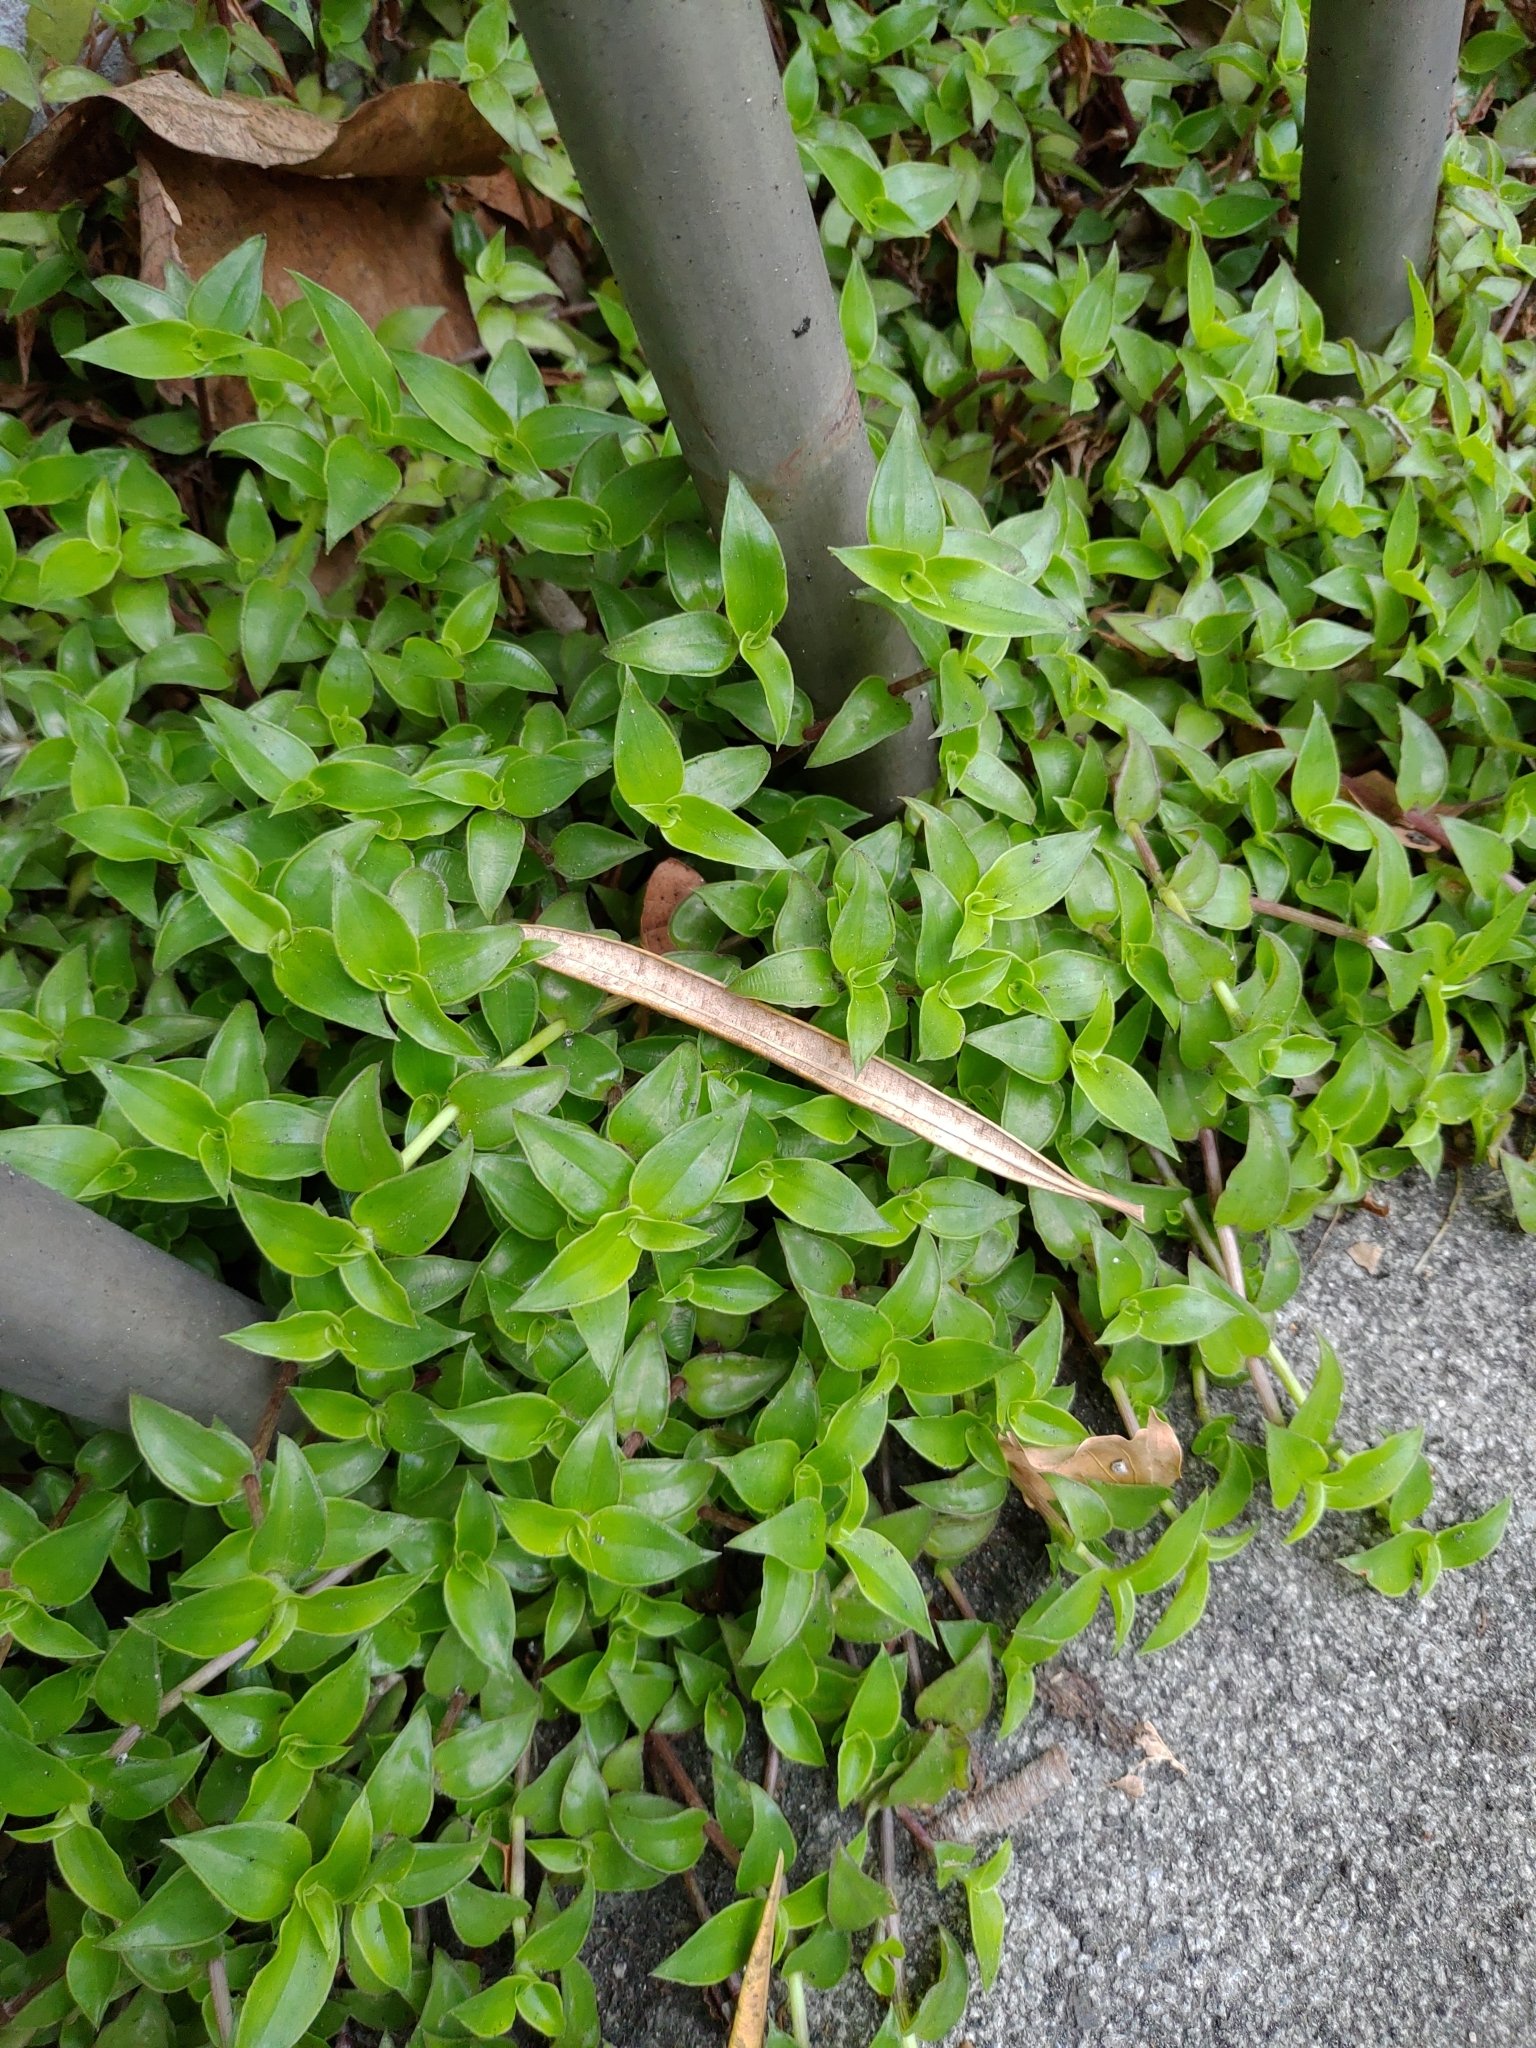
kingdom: Plantae
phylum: Tracheophyta
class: Liliopsida
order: Commelinales
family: Commelinaceae
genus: Callisia
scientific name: Callisia repens
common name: Creeping inchplant
